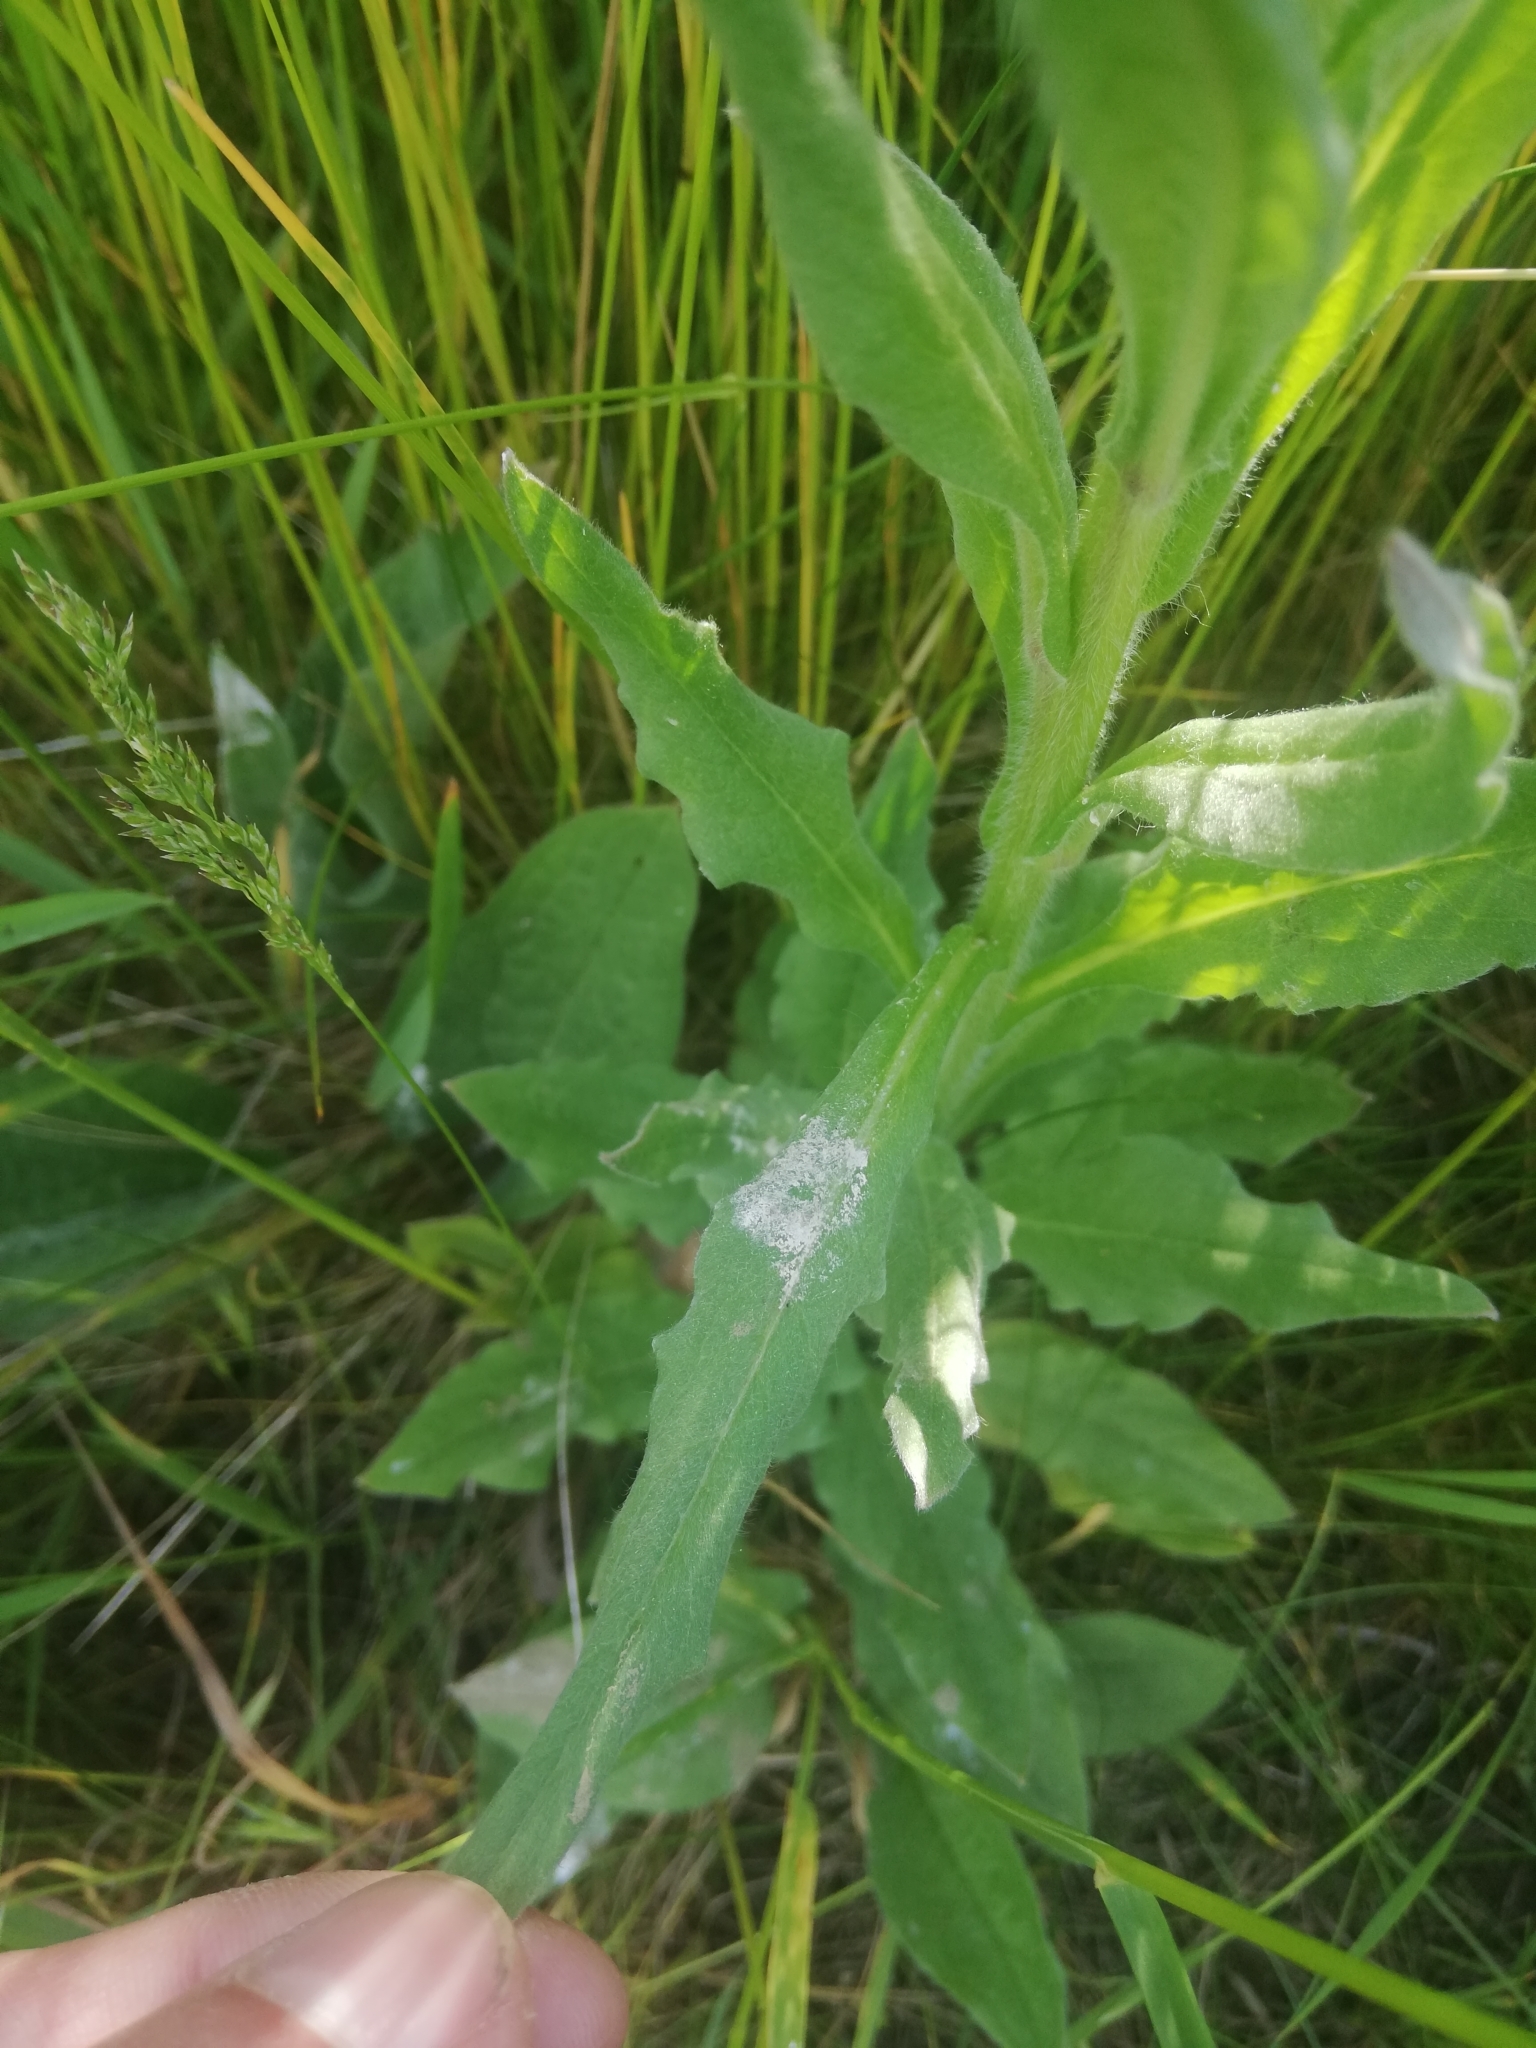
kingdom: Plantae
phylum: Tracheophyta
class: Magnoliopsida
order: Boraginales
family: Boraginaceae
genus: Cynoglossum
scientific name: Cynoglossum officinale
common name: Hound's-tongue
